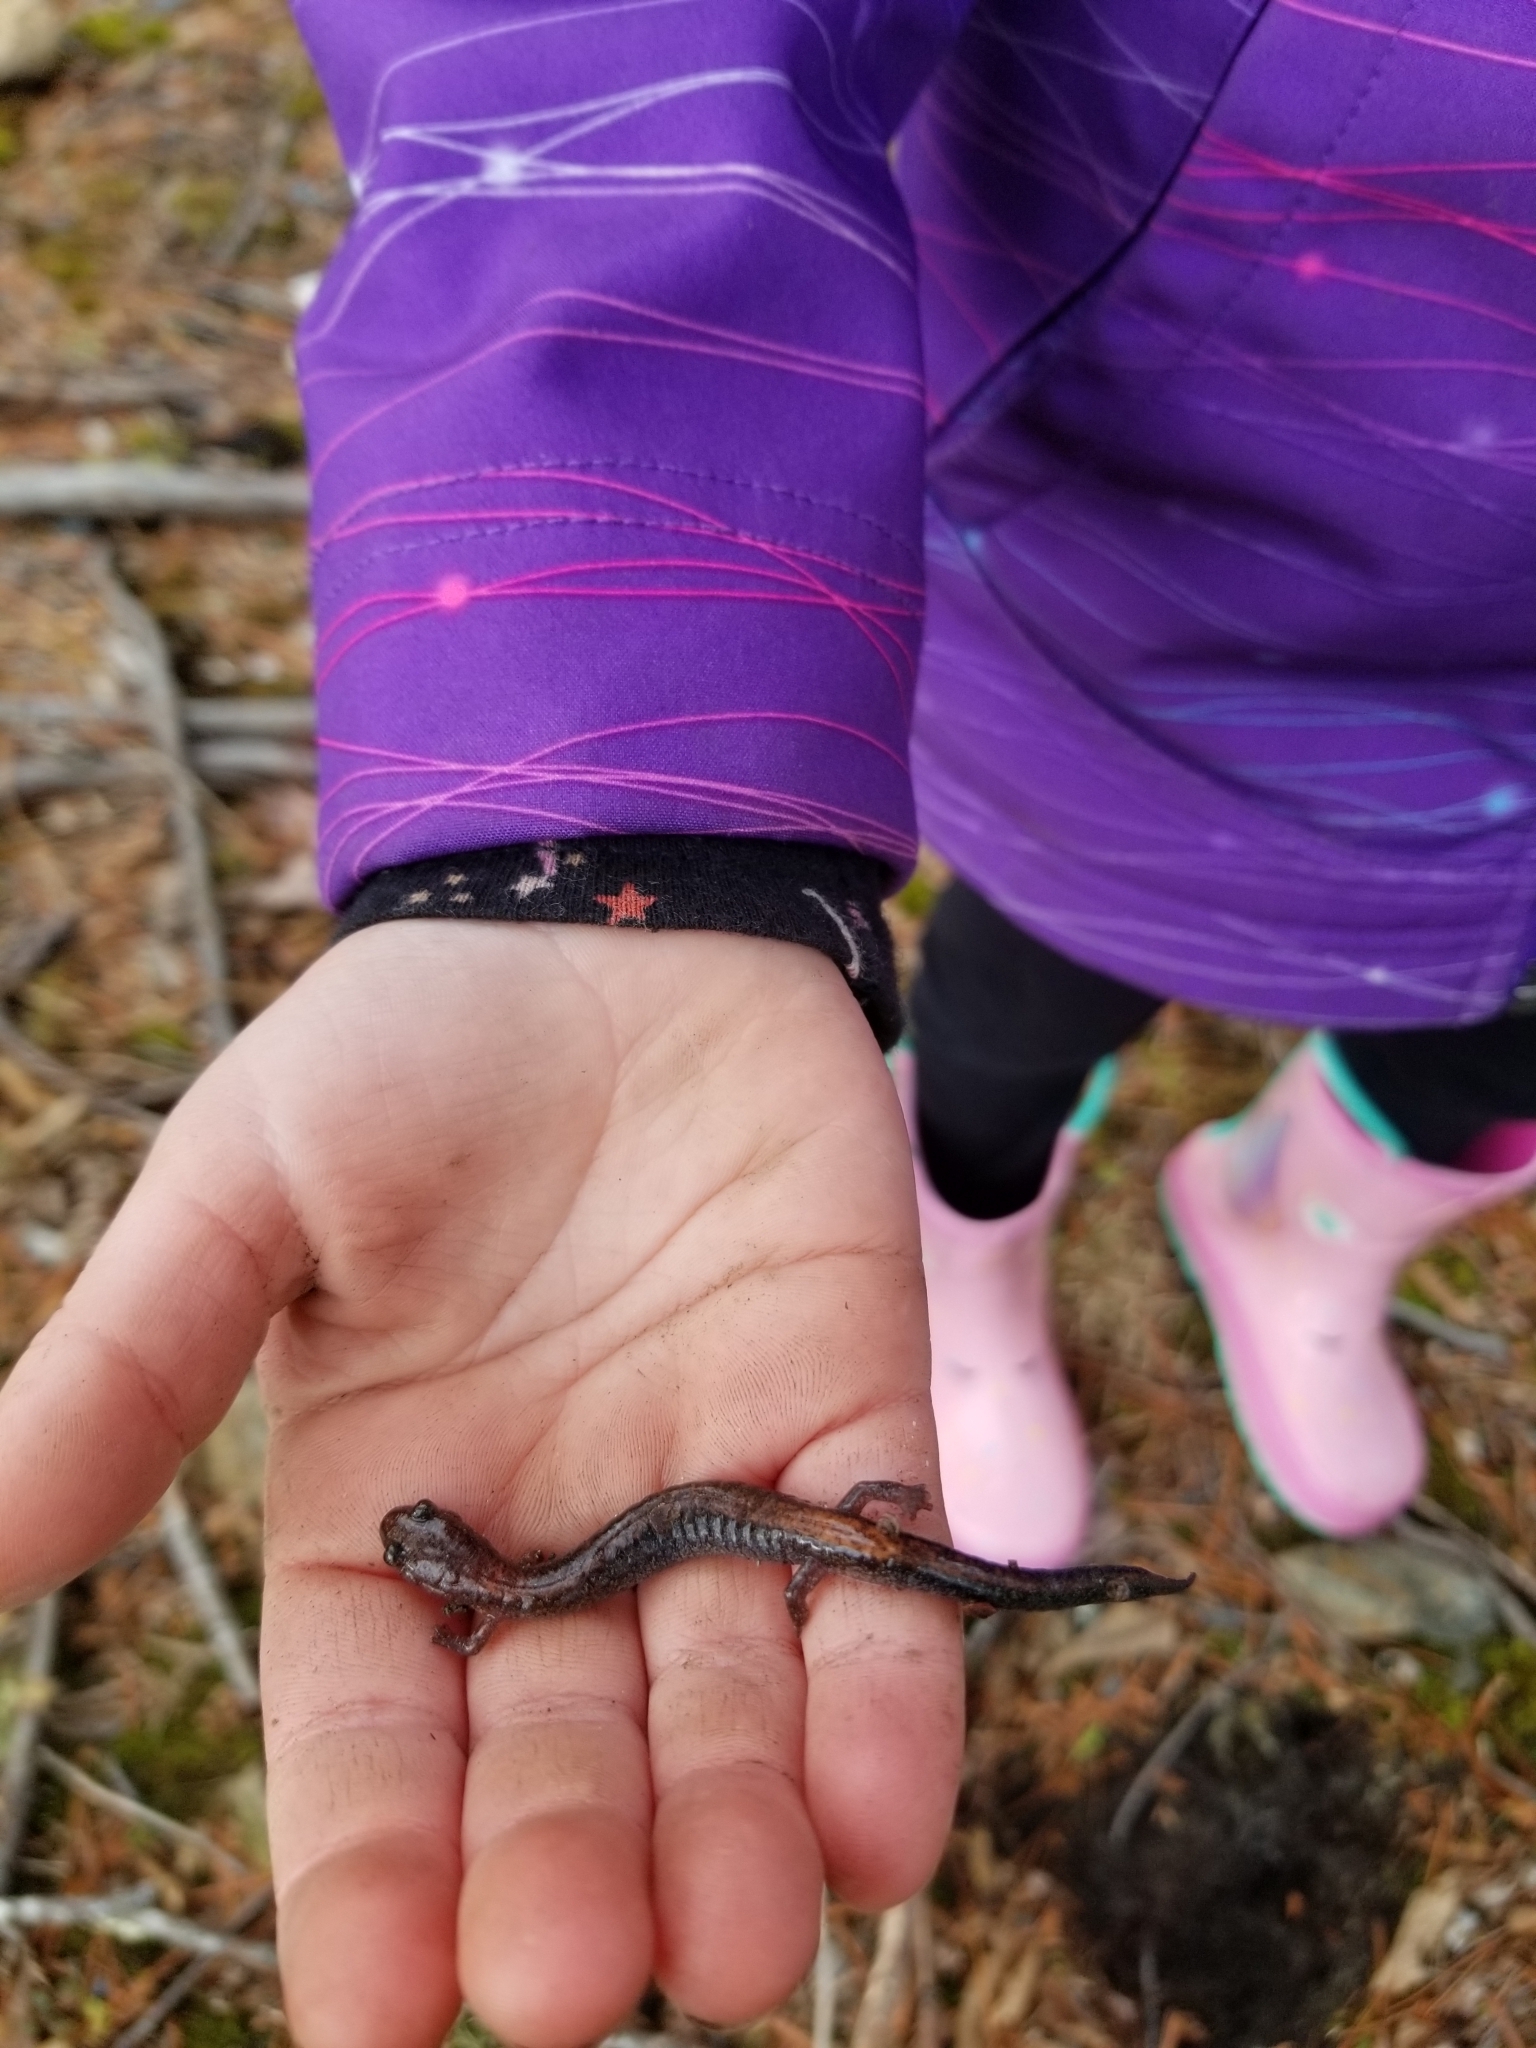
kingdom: Animalia
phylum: Chordata
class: Amphibia
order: Caudata
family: Plethodontidae
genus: Plethodon
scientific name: Plethodon cinereus
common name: Redback salamander
